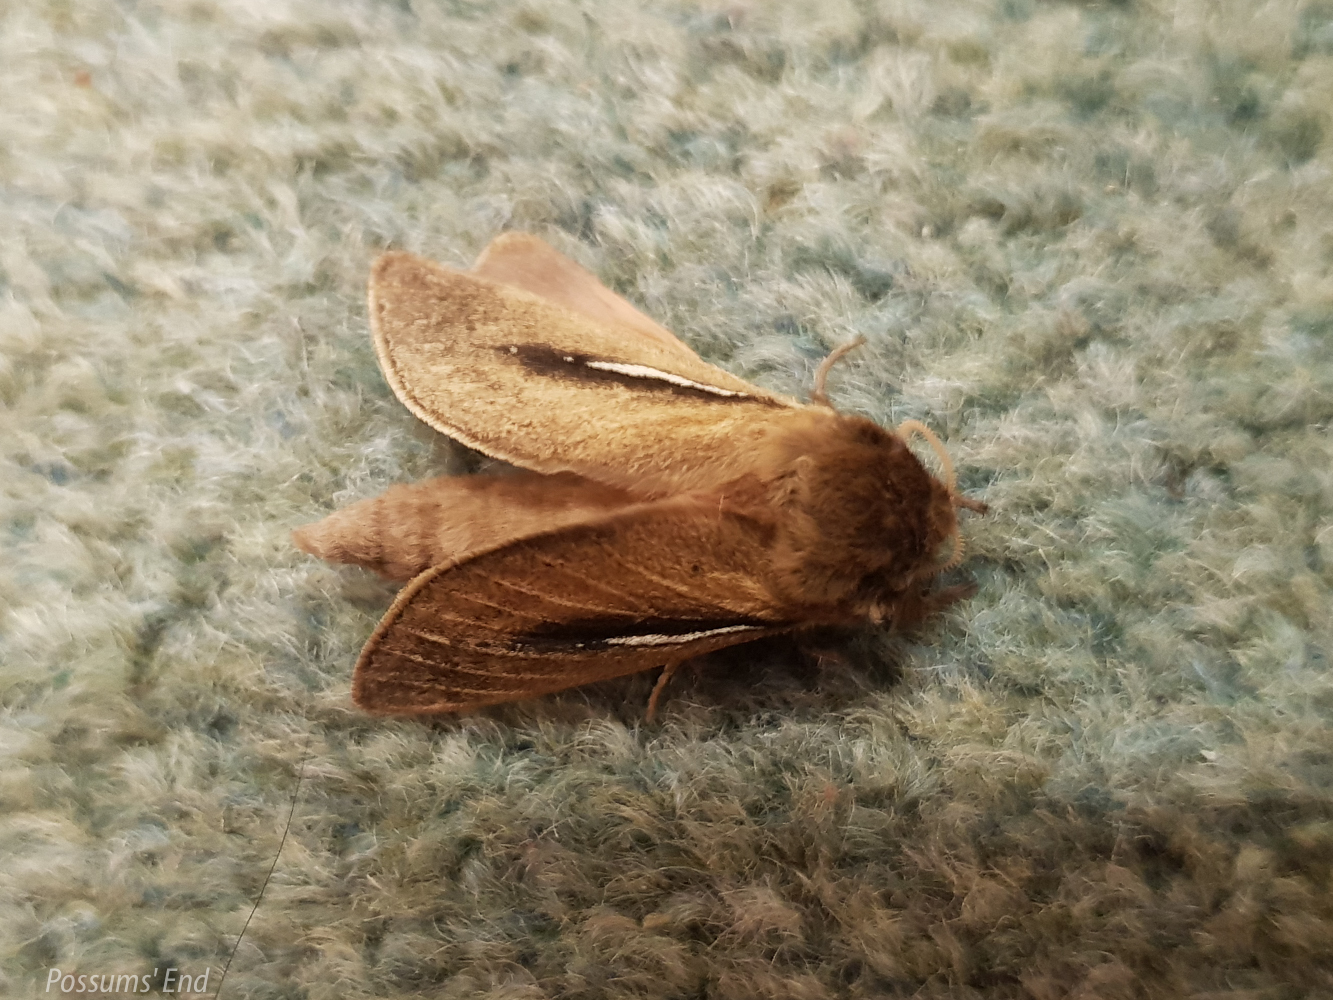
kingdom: Animalia
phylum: Arthropoda
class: Insecta
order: Lepidoptera
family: Hepialidae
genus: Wiseana
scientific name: Wiseana umbraculatus
